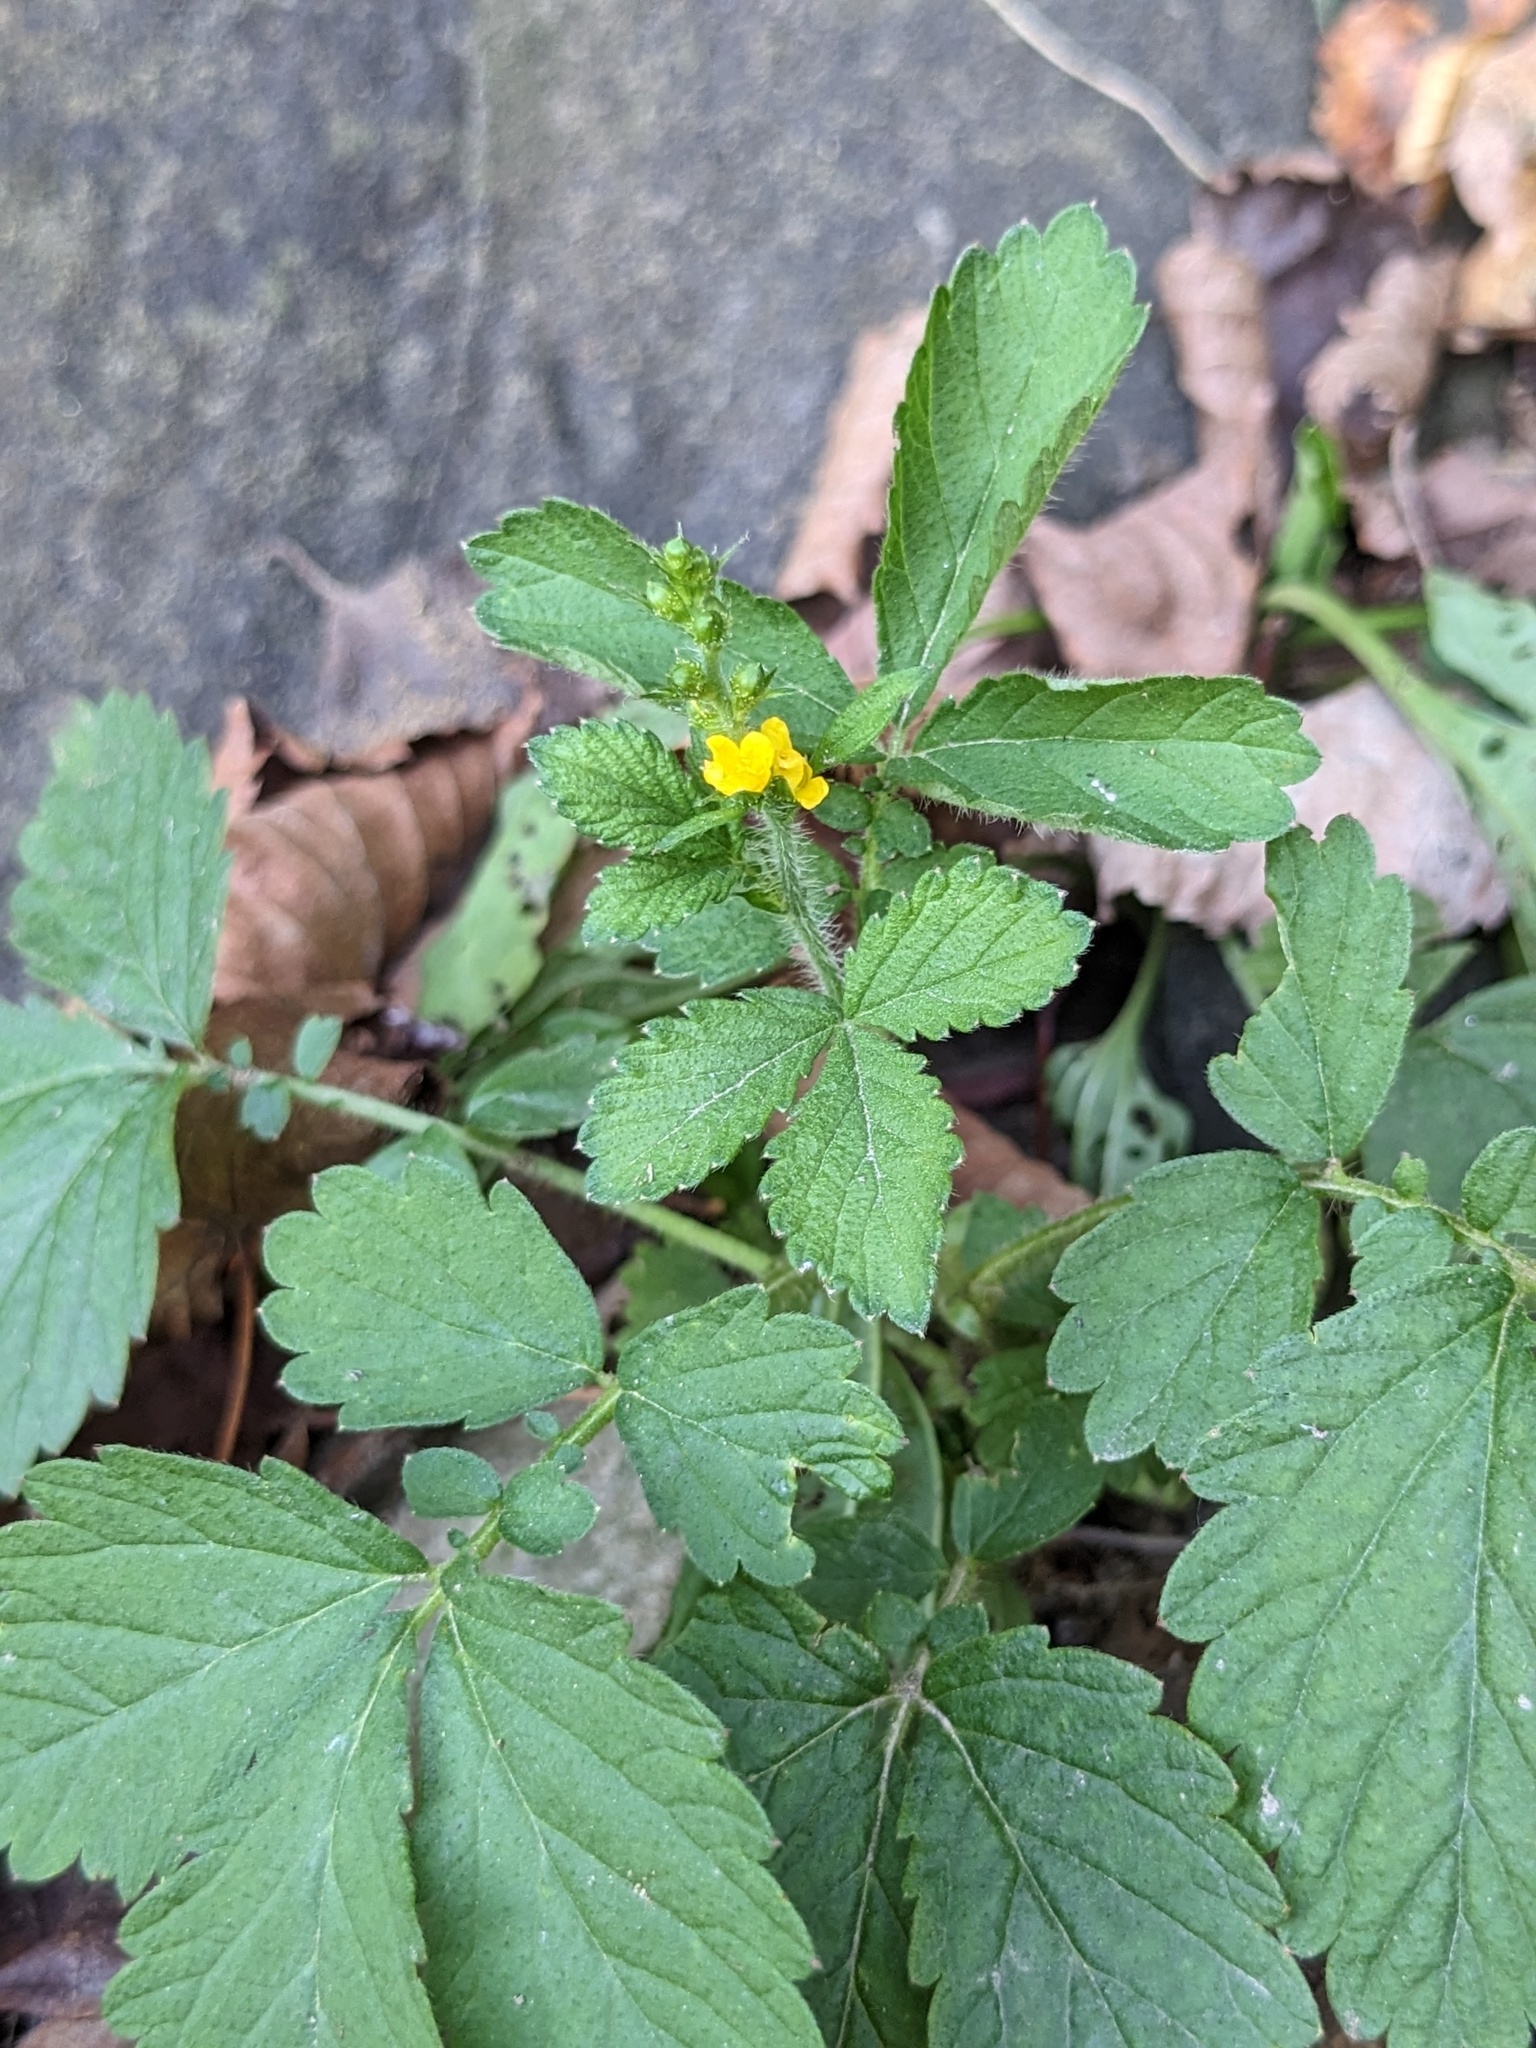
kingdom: Plantae
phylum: Tracheophyta
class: Magnoliopsida
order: Rosales
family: Rosaceae
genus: Agrimonia
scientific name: Agrimonia pilosa
